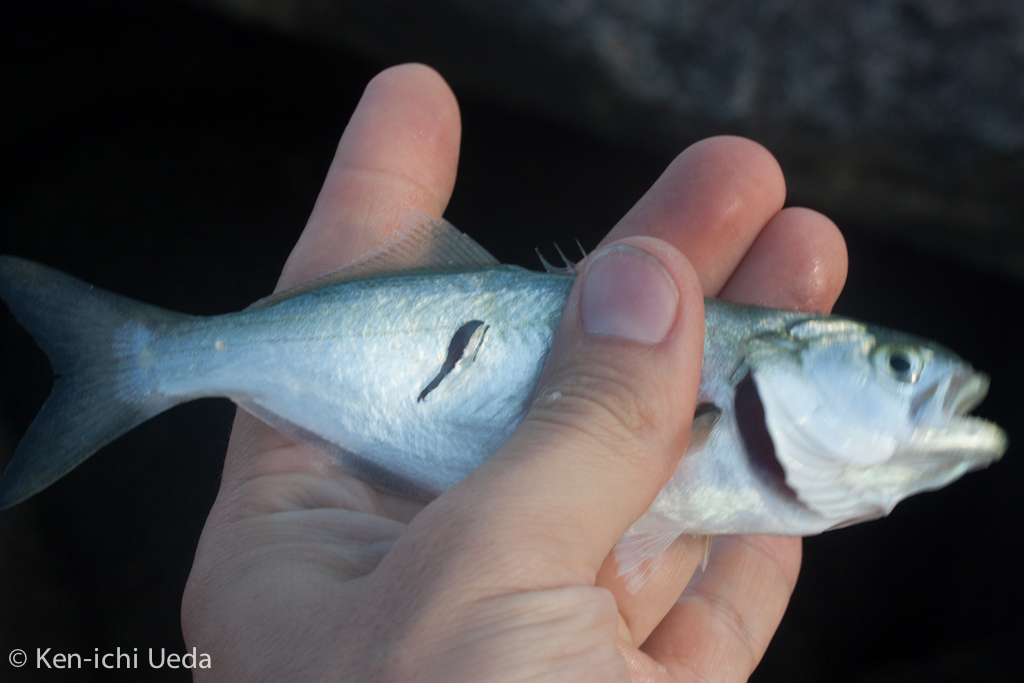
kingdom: Animalia
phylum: Chordata
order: Perciformes
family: Pomatomidae
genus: Pomatomus
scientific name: Pomatomus saltatrix
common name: Bluefish
